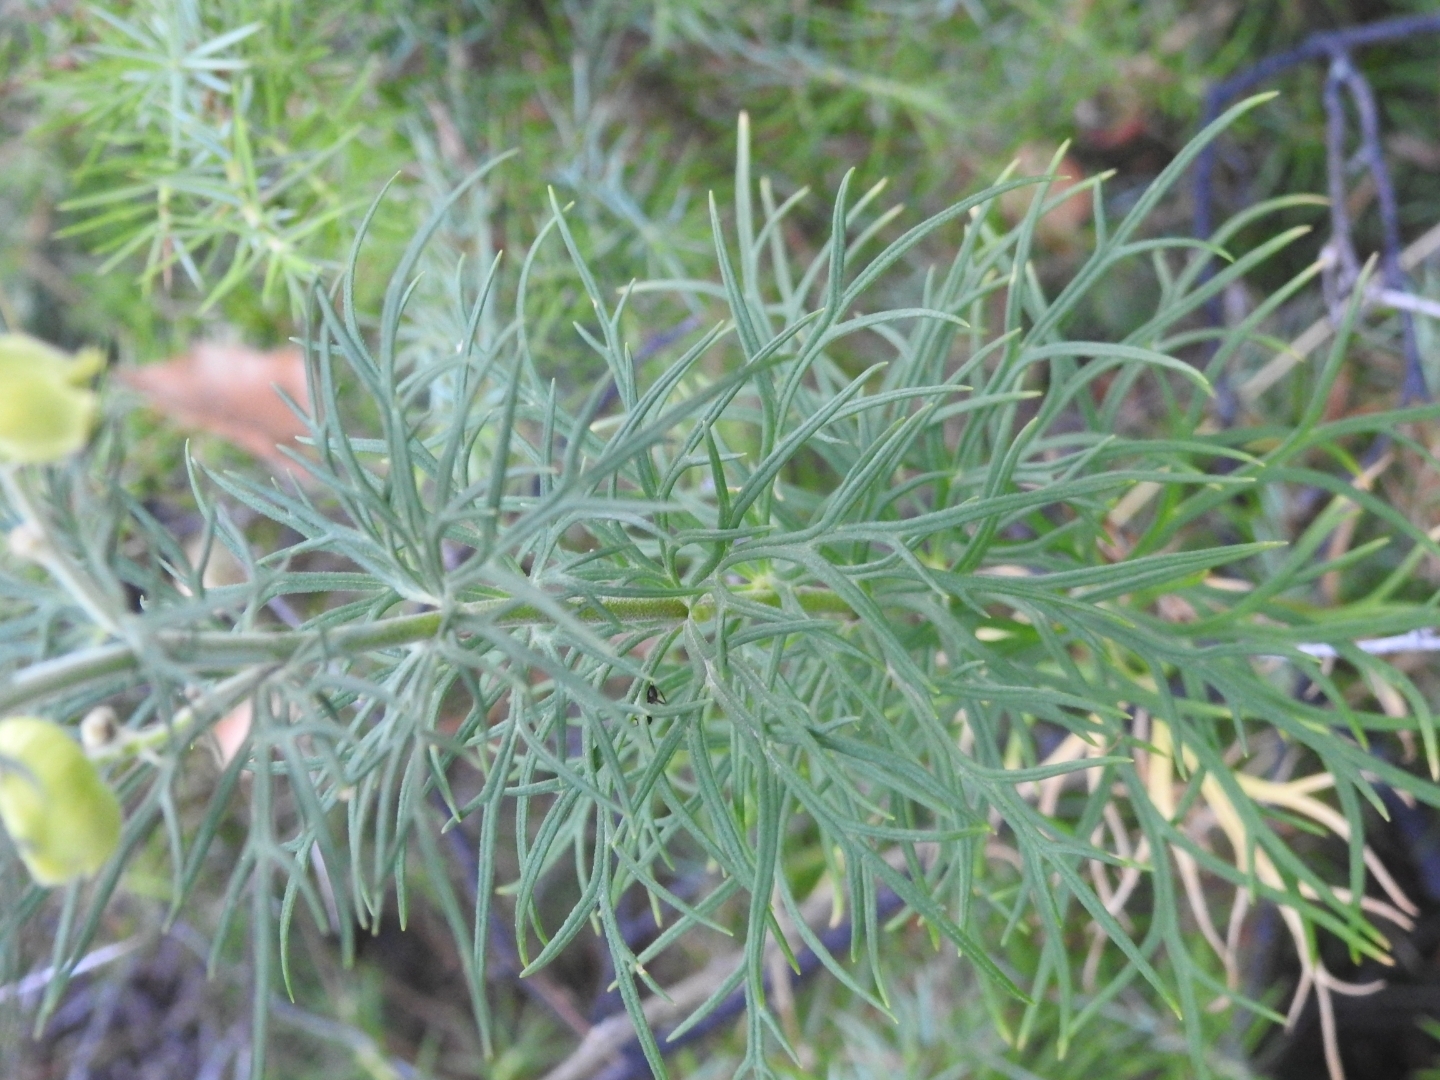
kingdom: Plantae
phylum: Tracheophyta
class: Magnoliopsida
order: Ranunculales
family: Ranunculaceae
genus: Aconitum
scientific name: Aconitum anthora
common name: Yellow monkshood
